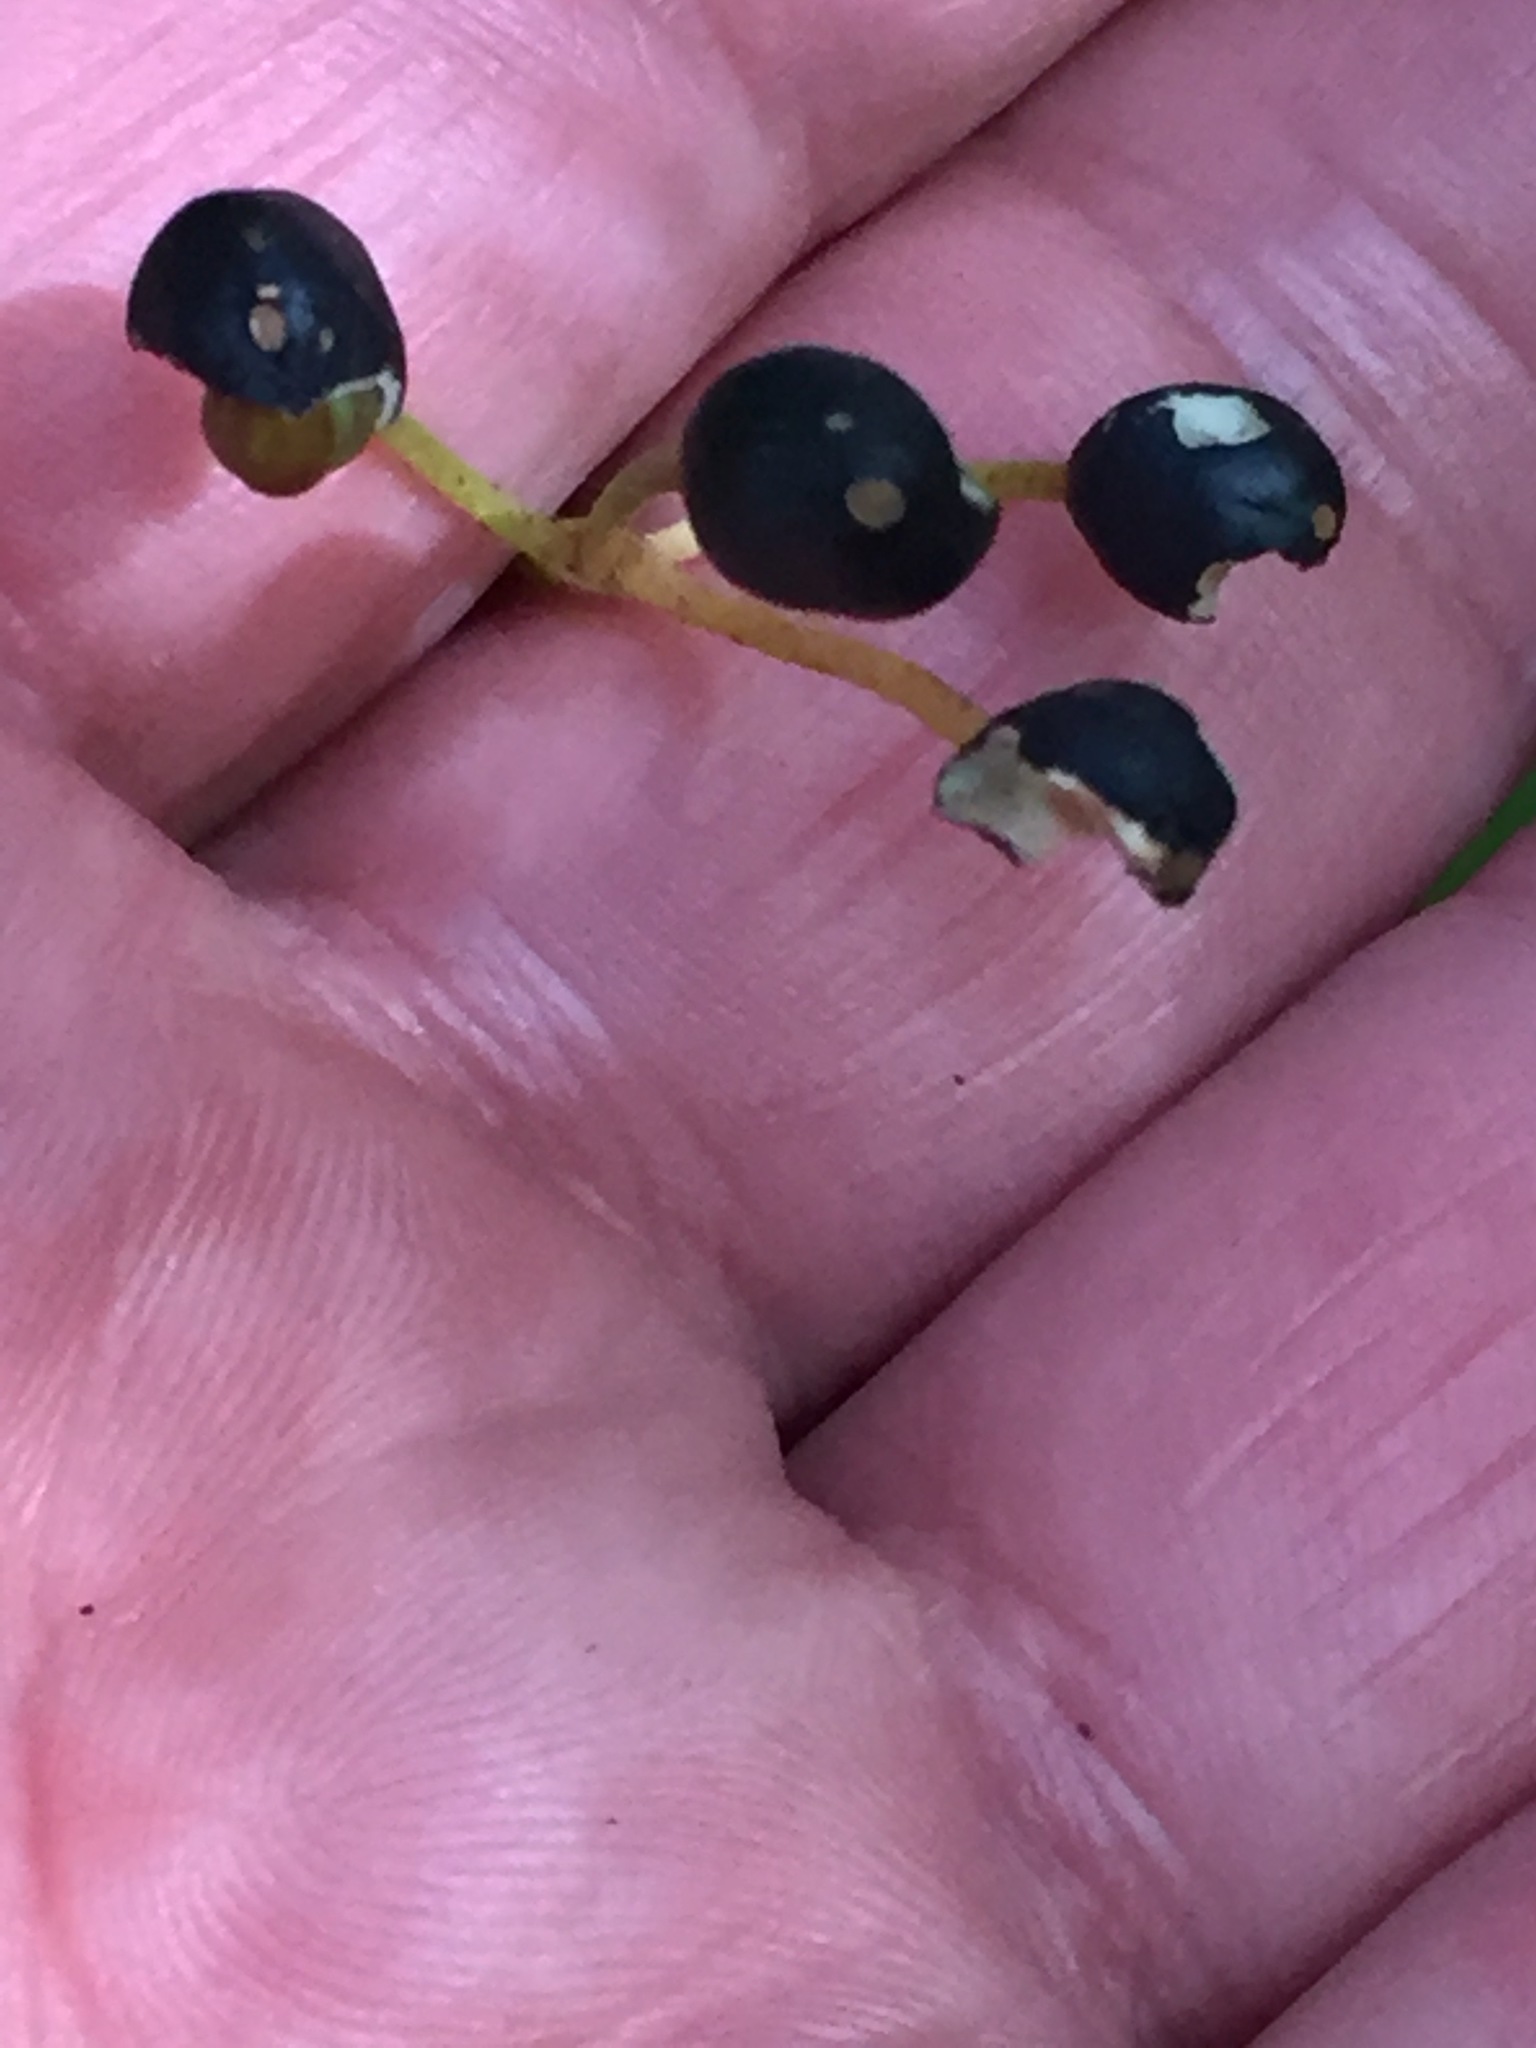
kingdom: Plantae
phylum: Tracheophyta
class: Liliopsida
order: Liliales
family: Liliaceae
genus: Clintonia
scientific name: Clintonia borealis
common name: Yellow clintonia
